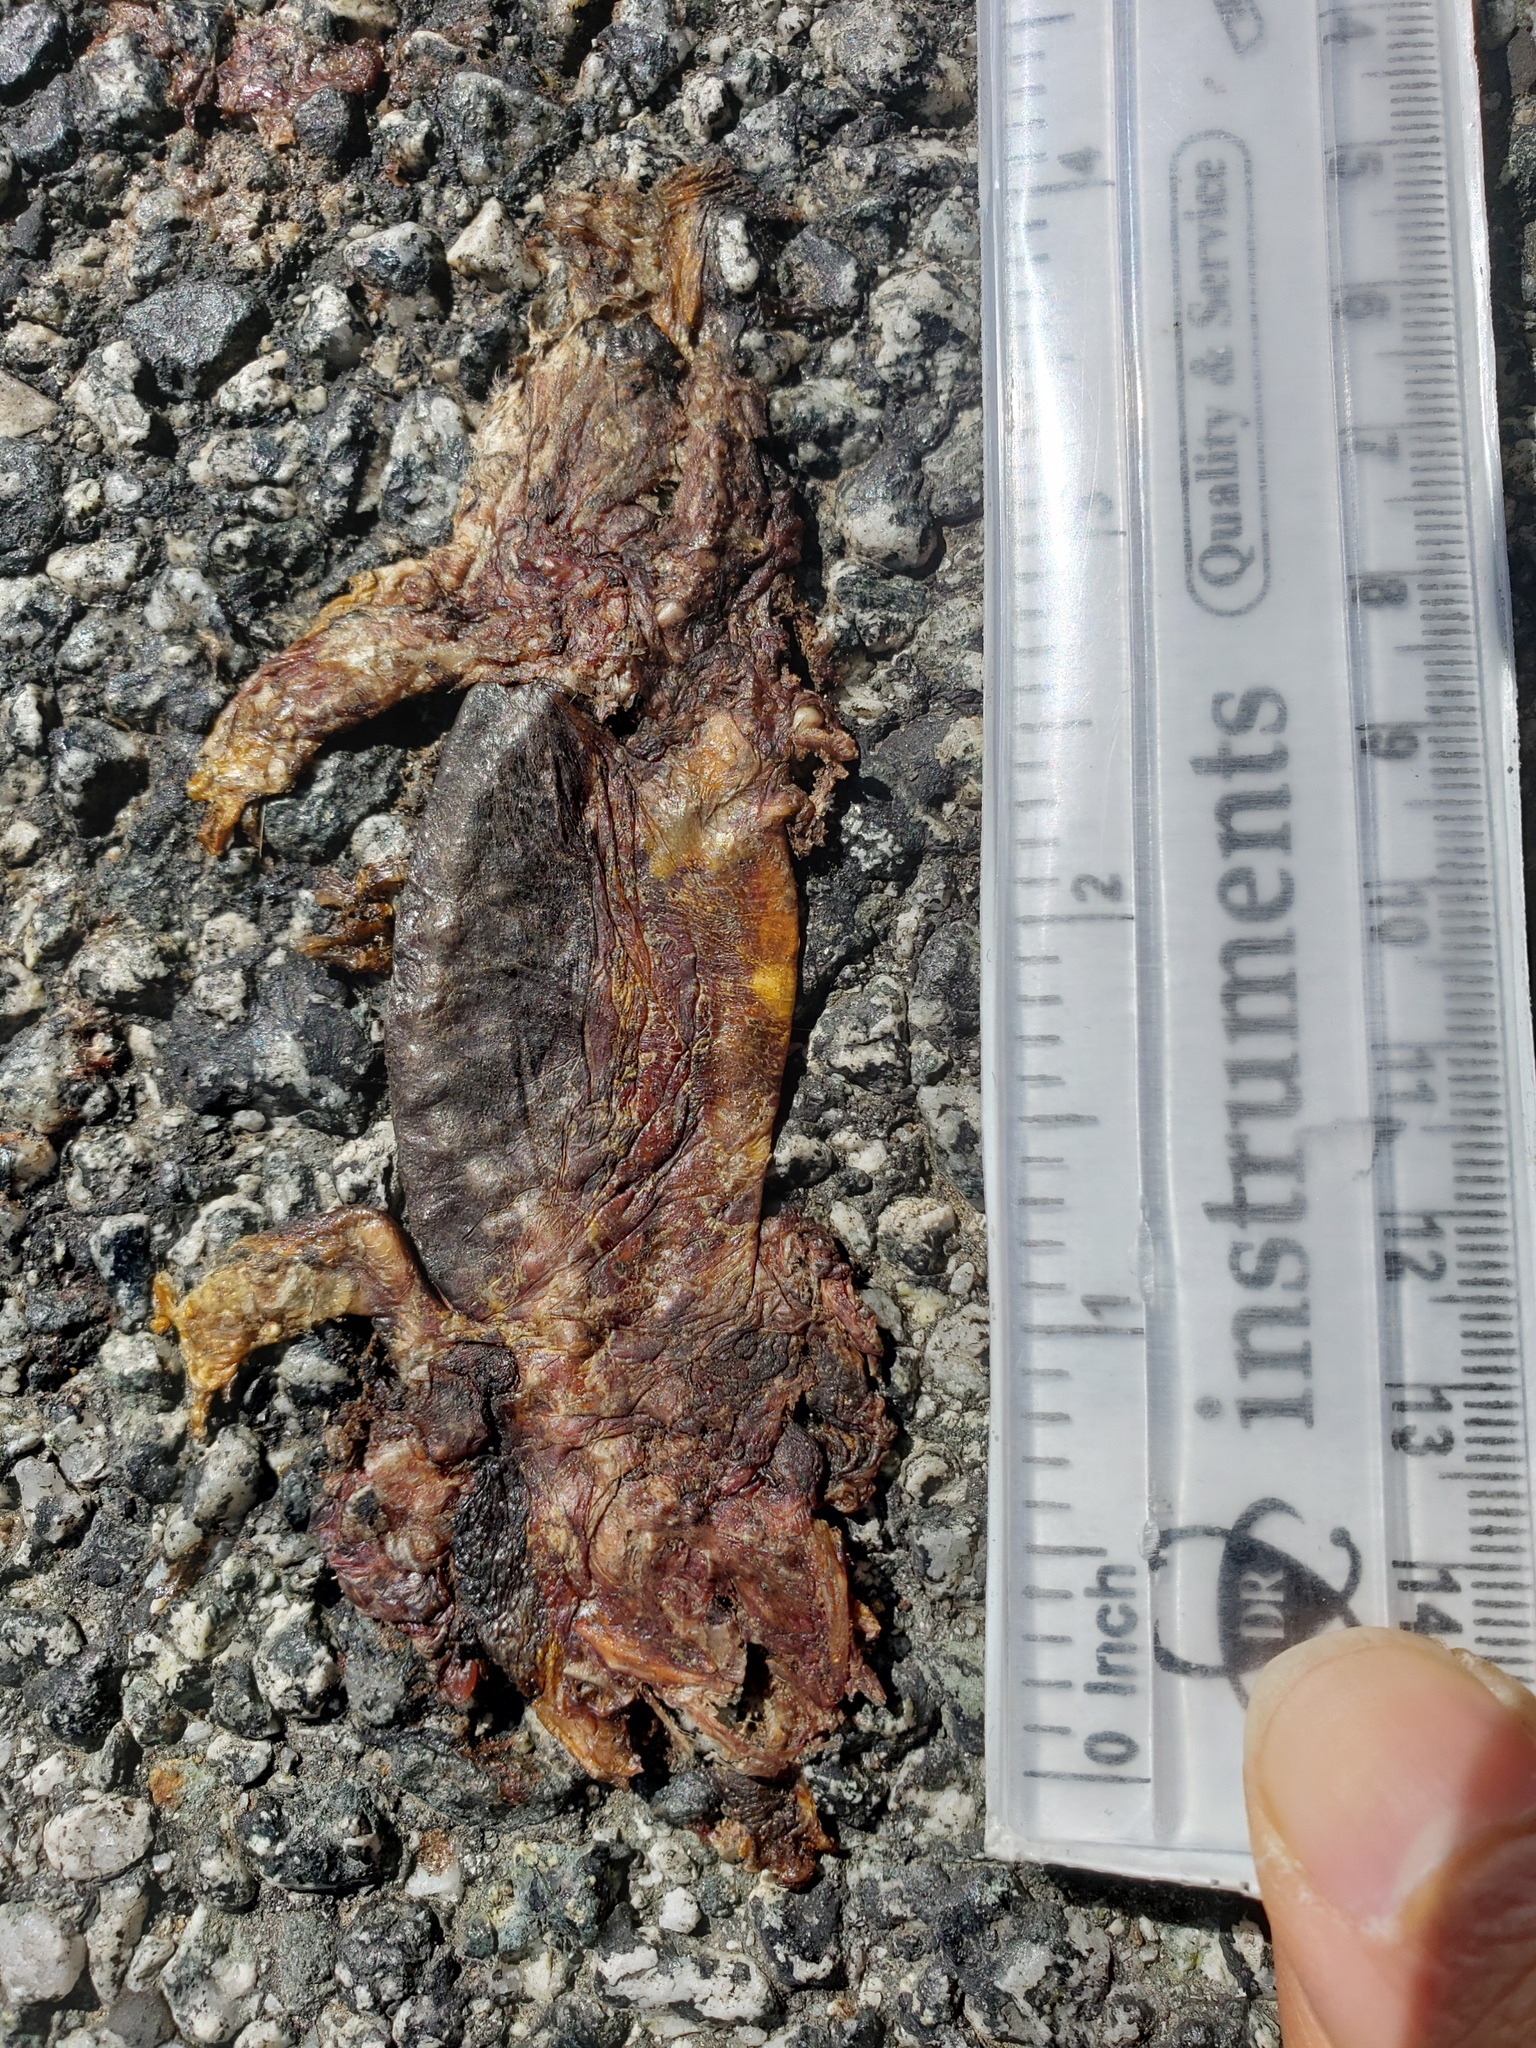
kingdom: Animalia
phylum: Chordata
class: Amphibia
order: Caudata
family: Salamandridae
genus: Taricha
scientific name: Taricha
